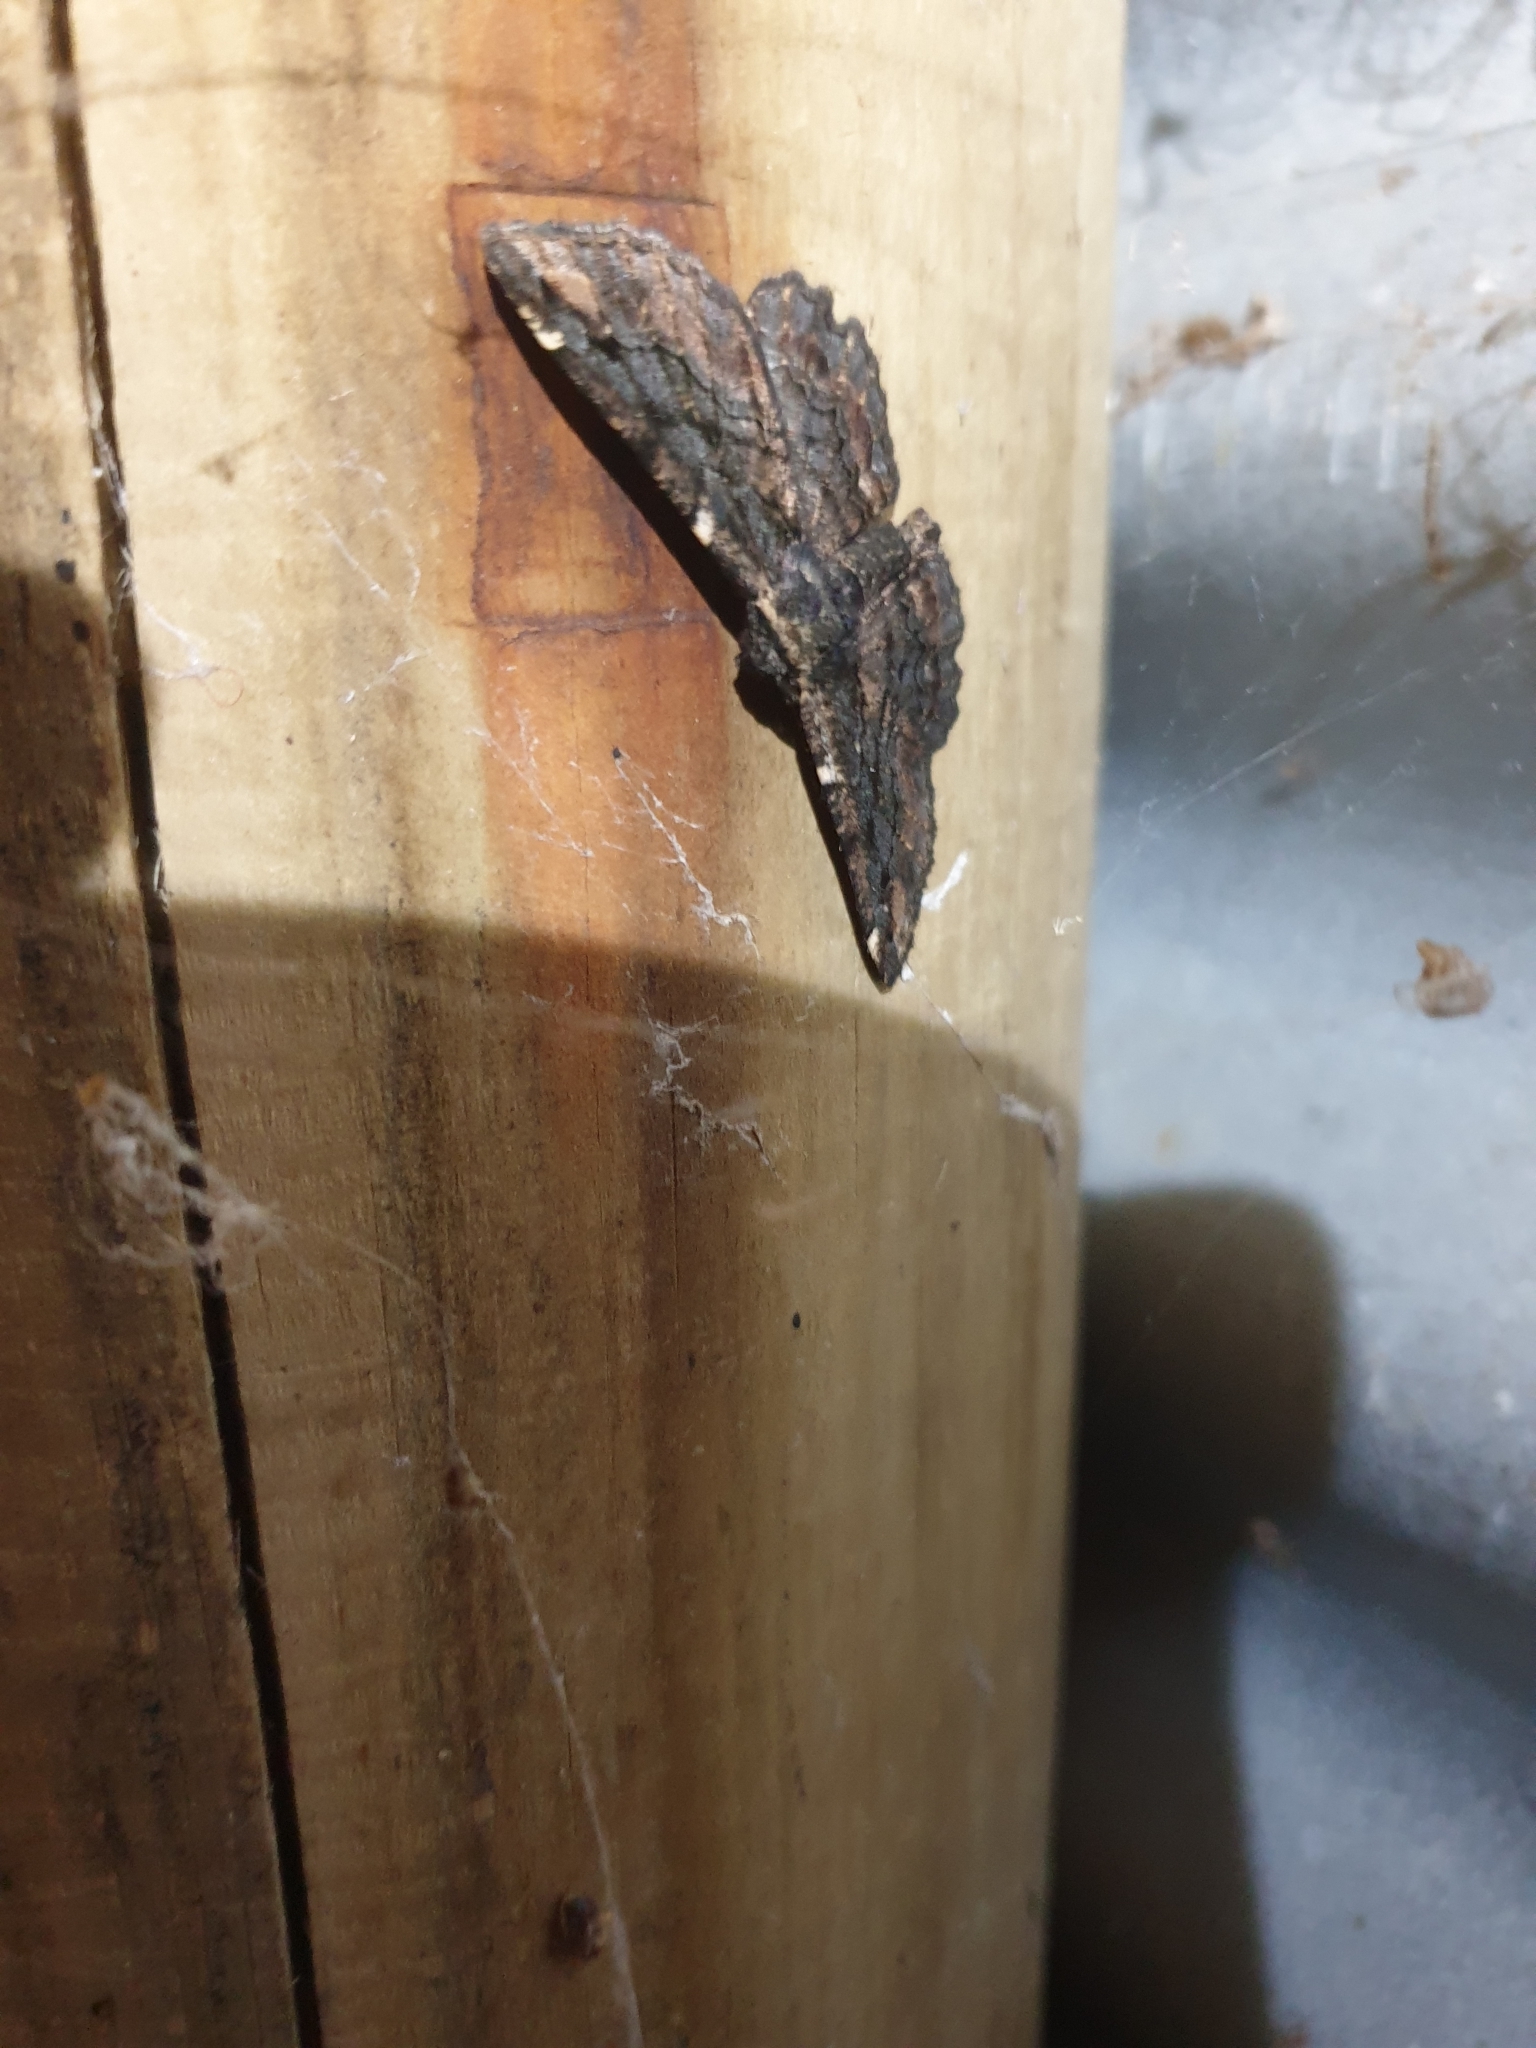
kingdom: Animalia
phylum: Arthropoda
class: Insecta
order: Lepidoptera
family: Geometridae
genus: Pholodes
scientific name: Pholodes sinistraria
